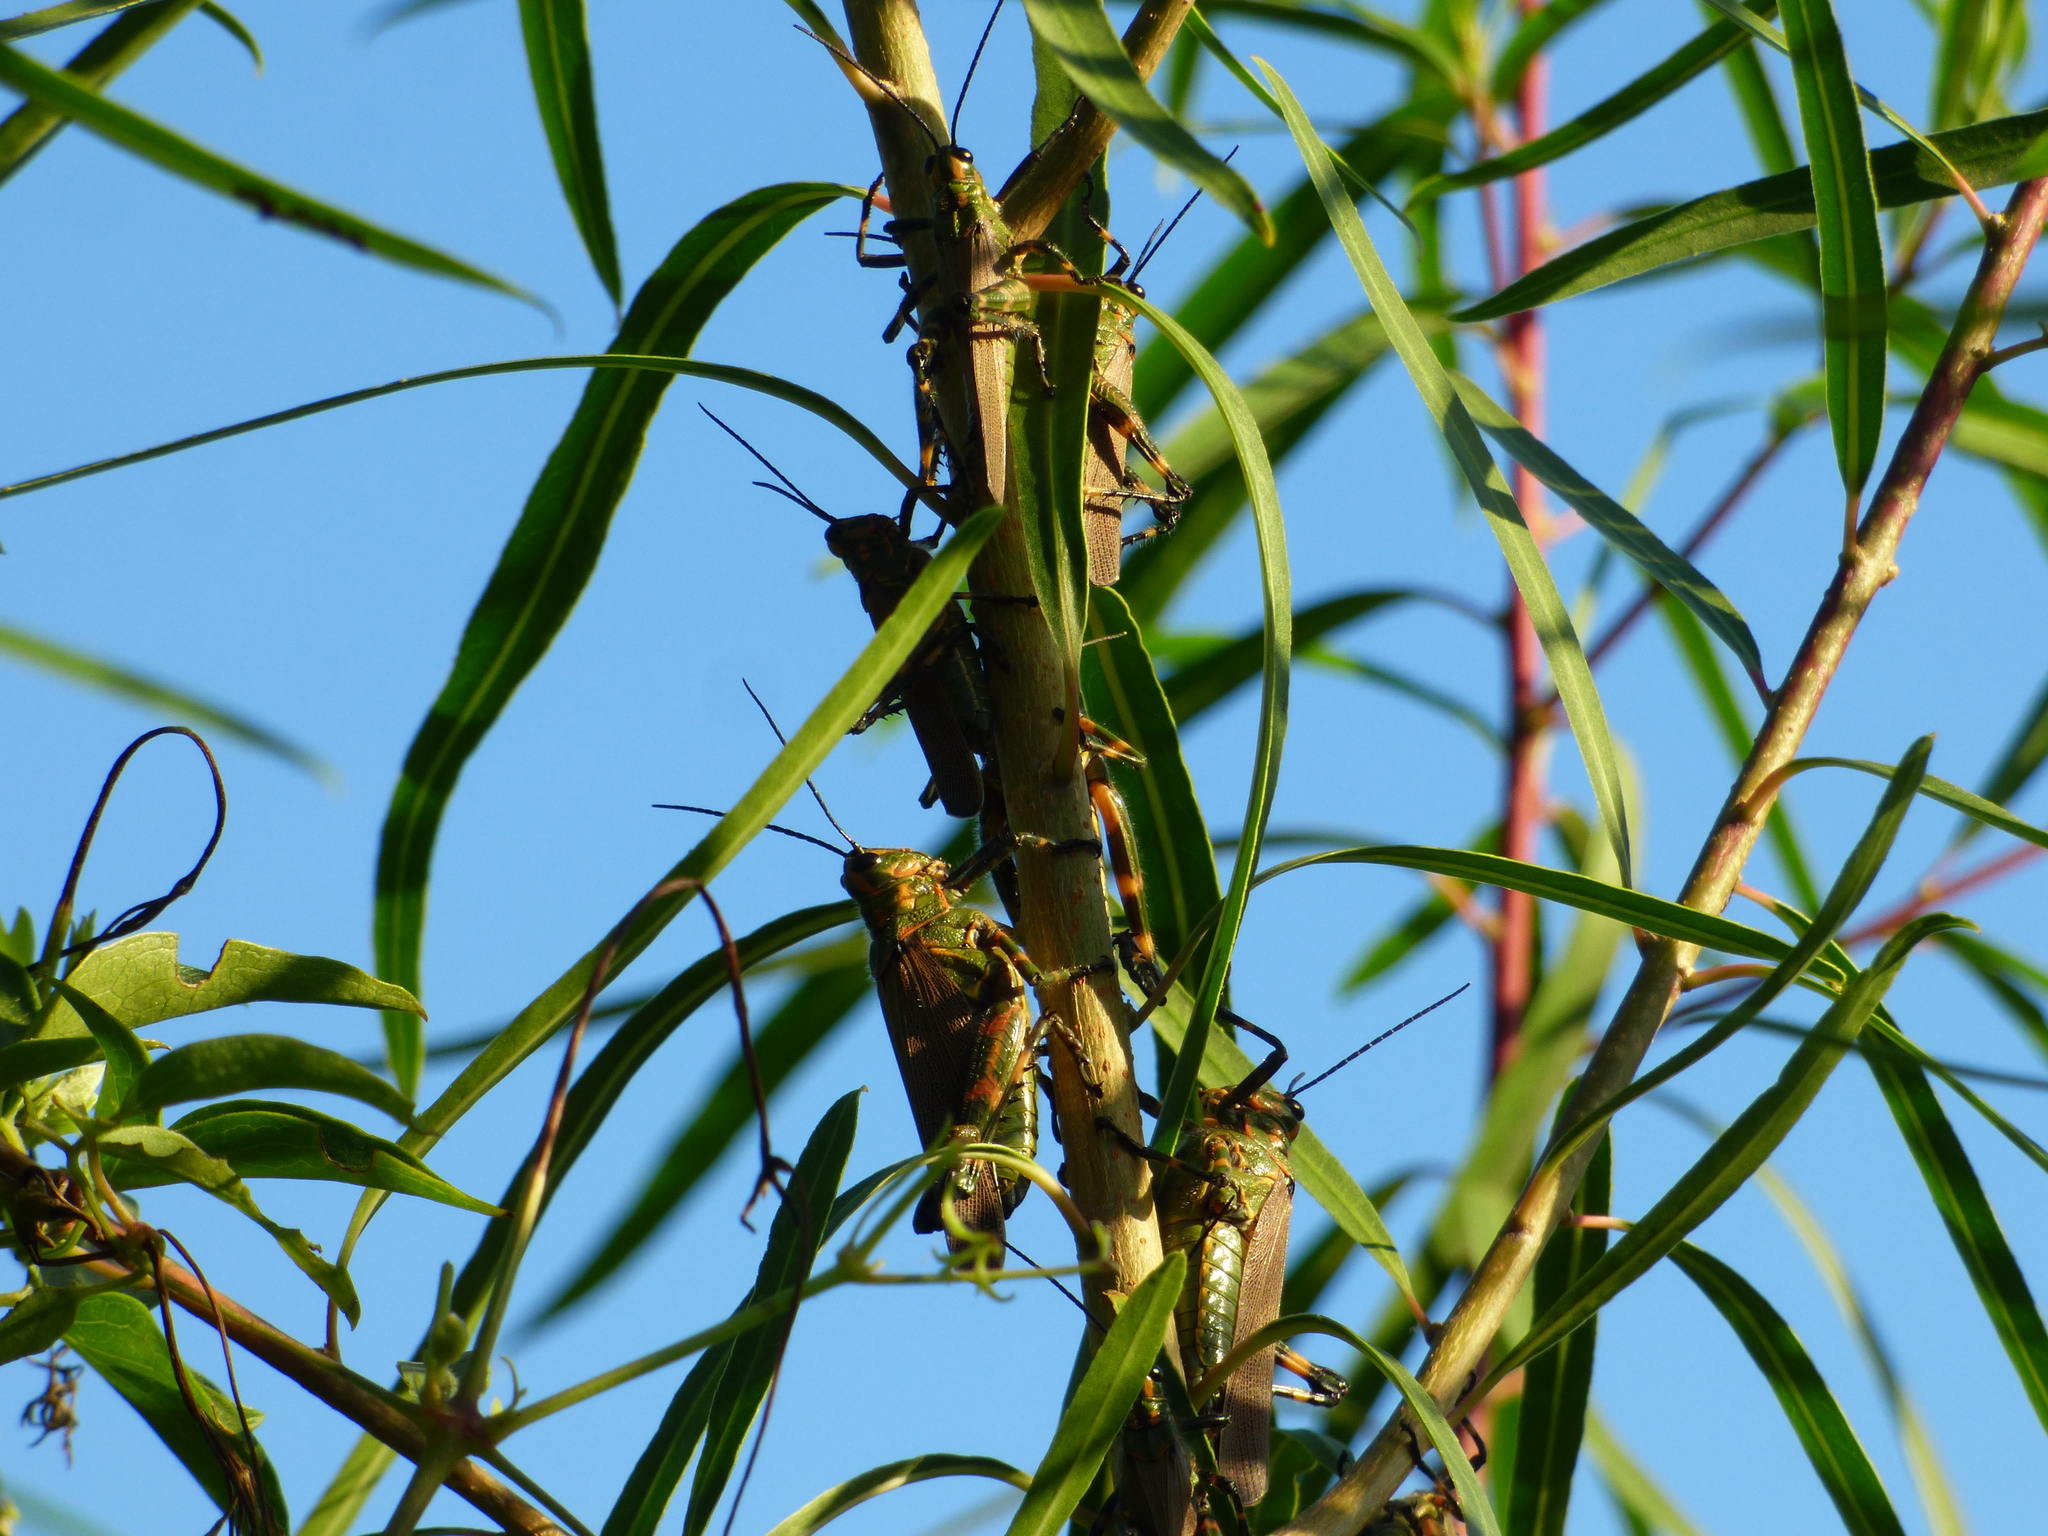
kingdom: Animalia
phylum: Arthropoda
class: Insecta
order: Orthoptera
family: Romaleidae
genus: Chromacris
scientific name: Chromacris speciosa
